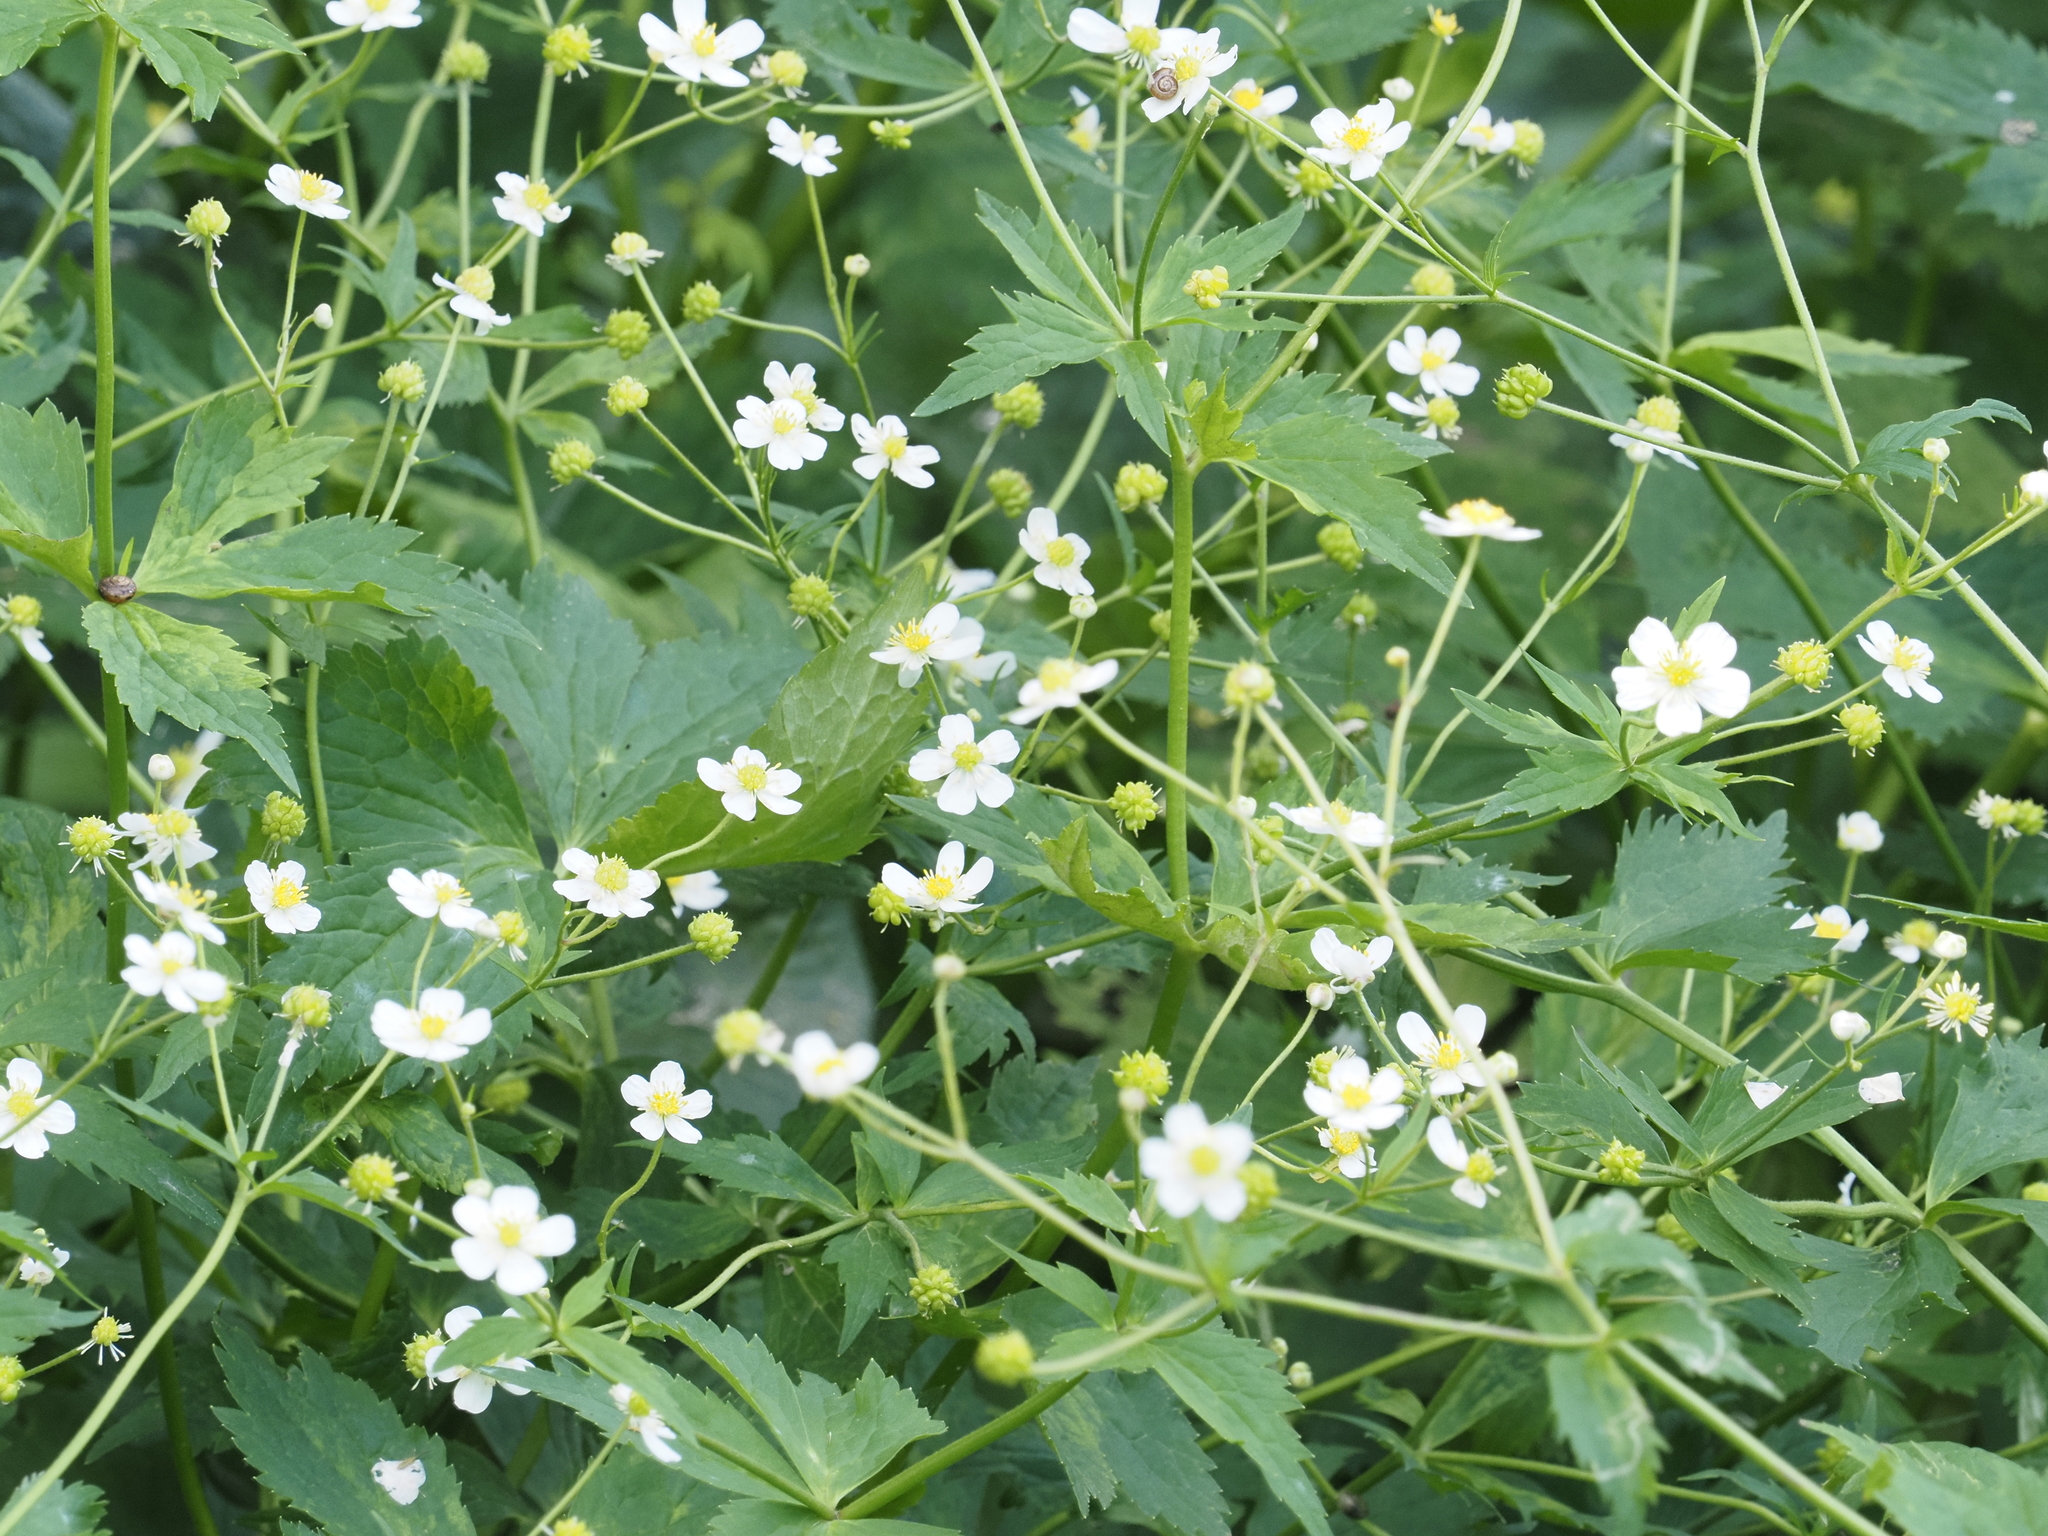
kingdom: Plantae
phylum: Tracheophyta
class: Magnoliopsida
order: Ranunculales
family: Ranunculaceae
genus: Ranunculus
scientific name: Ranunculus aconitifolius
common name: Aconite-leaved buttercup
